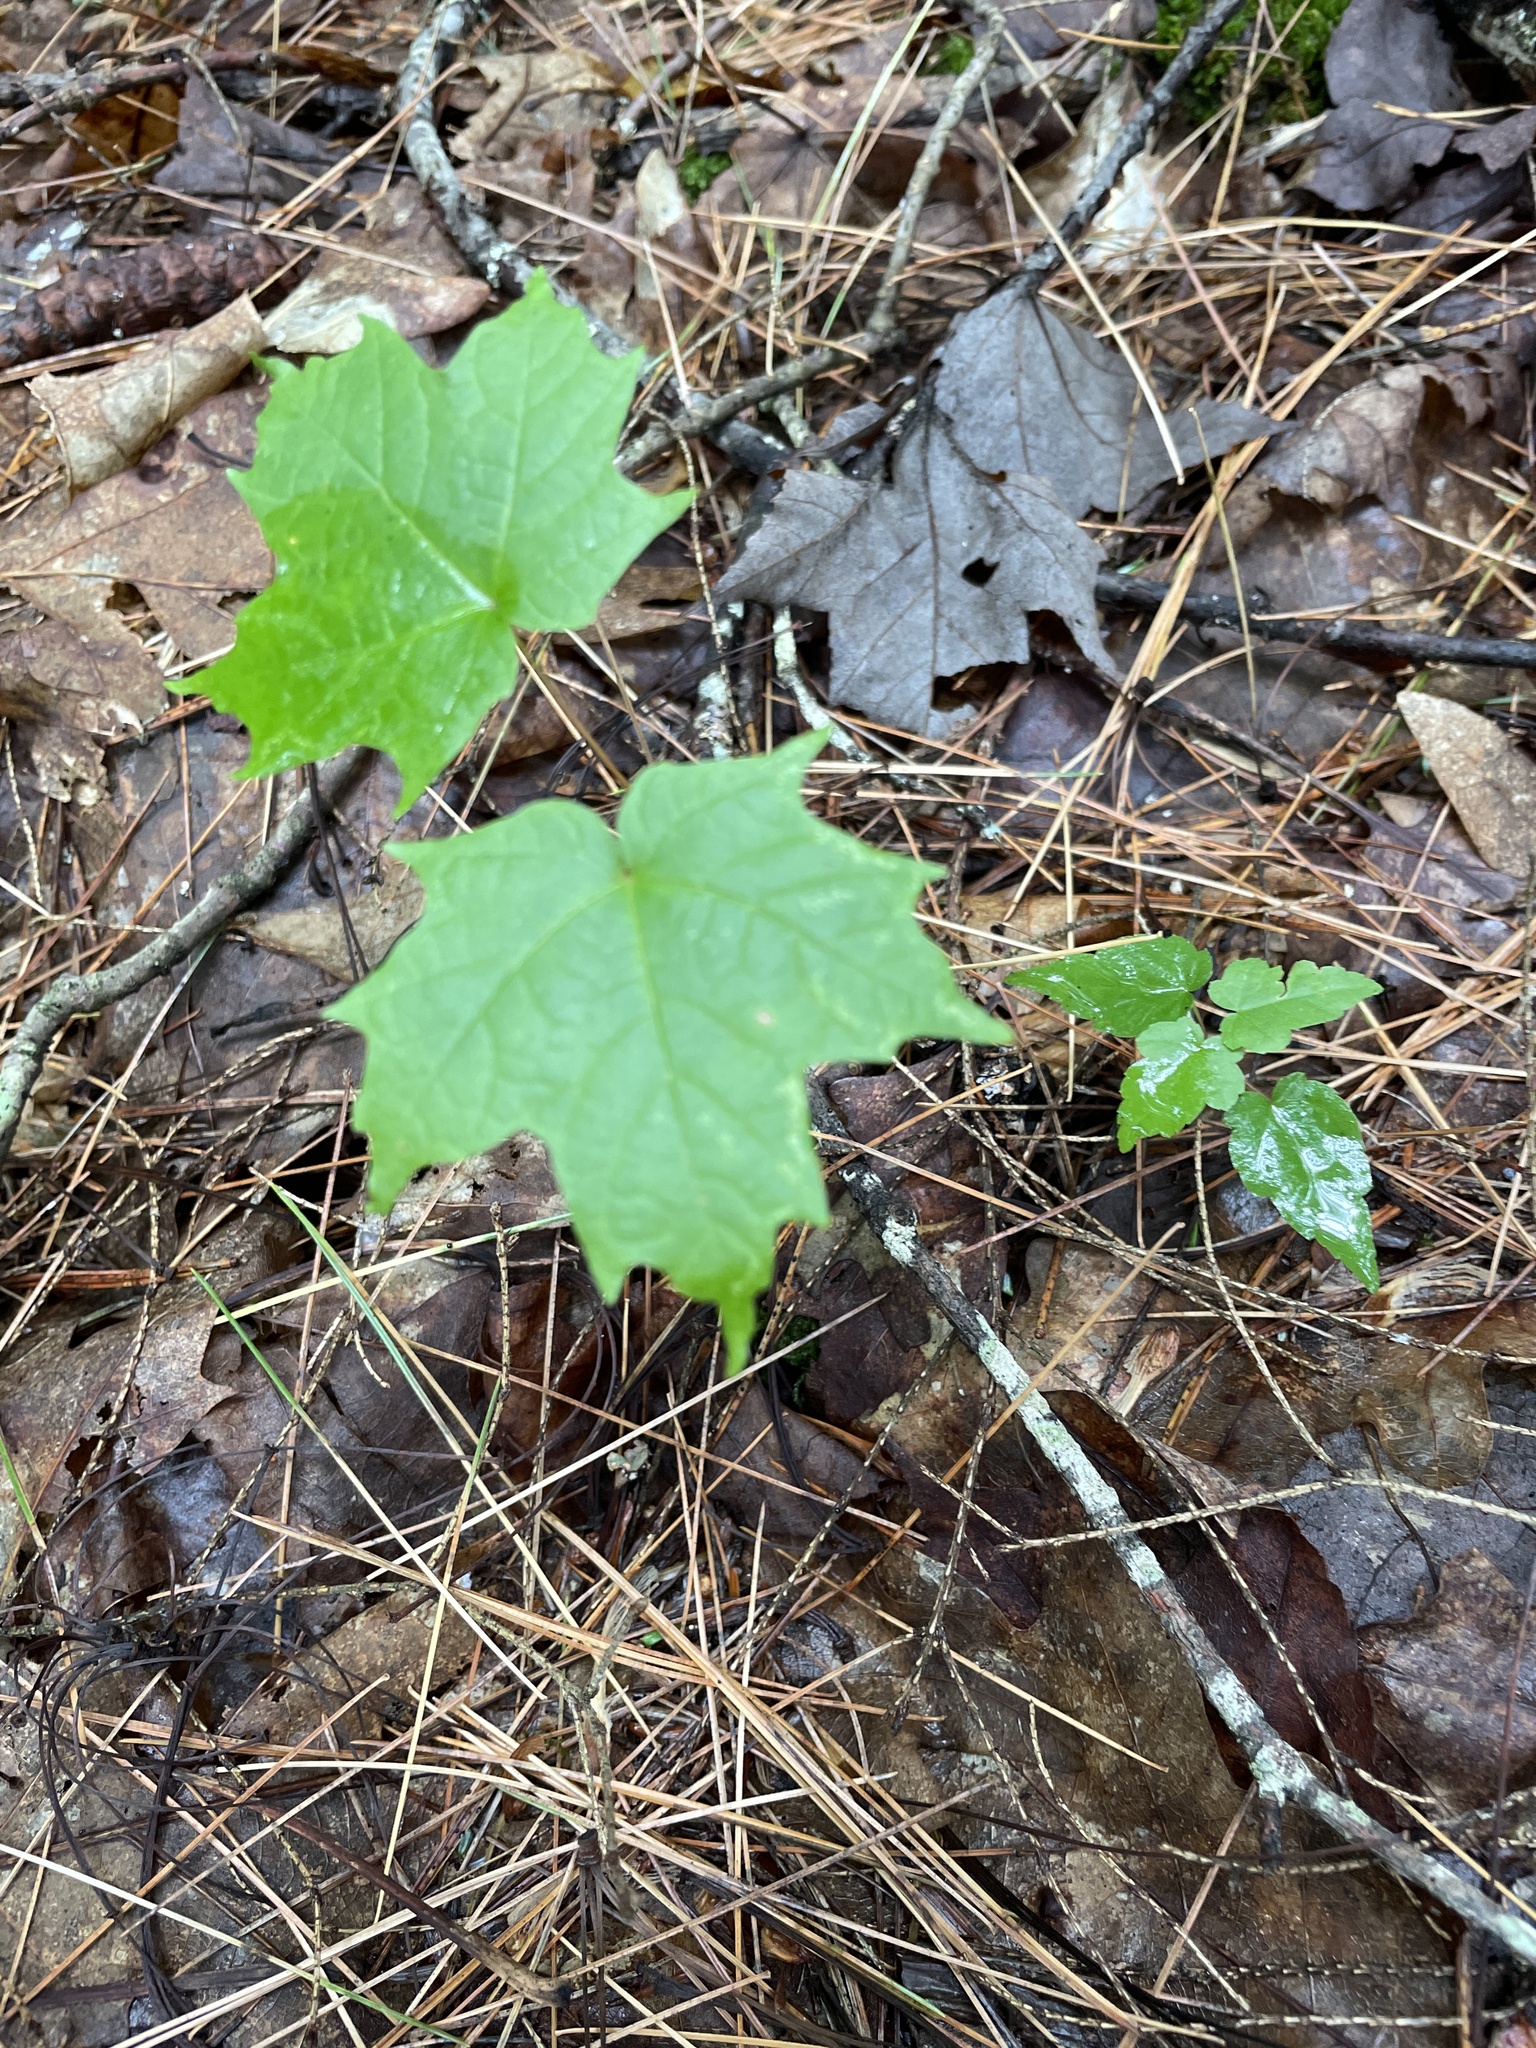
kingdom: Plantae
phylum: Tracheophyta
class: Magnoliopsida
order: Sapindales
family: Sapindaceae
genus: Acer
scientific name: Acer saccharum
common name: Sugar maple
